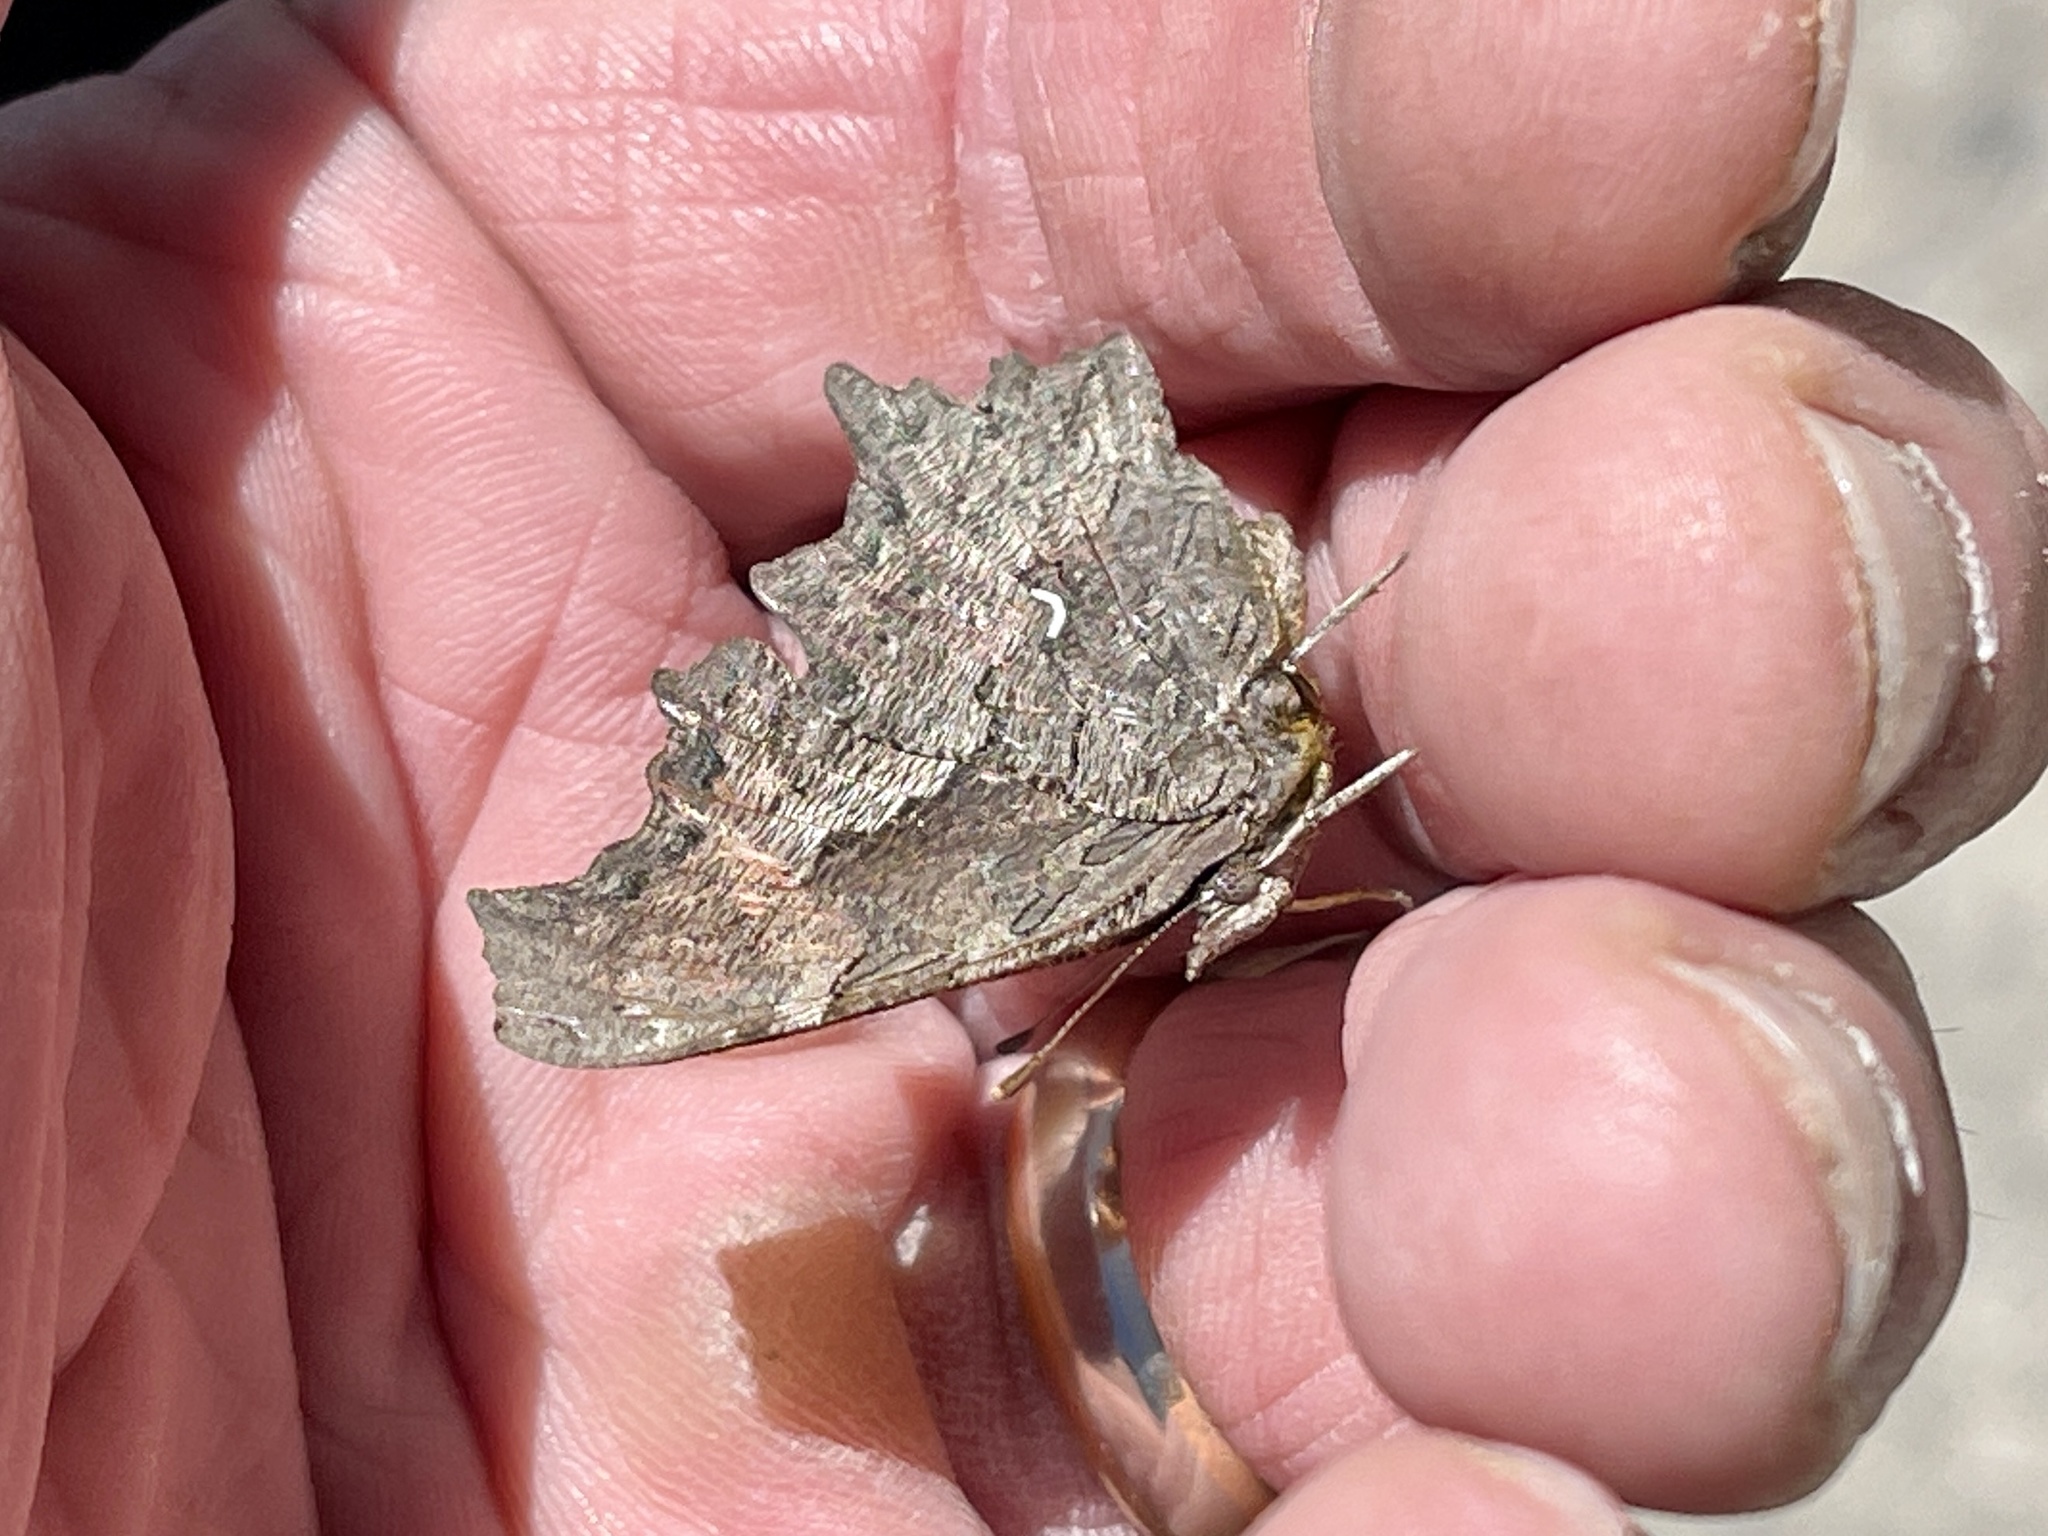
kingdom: Animalia
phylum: Arthropoda
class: Insecta
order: Lepidoptera
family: Nymphalidae
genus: Polygonia
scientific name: Polygonia gracilis
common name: Hoary comma
